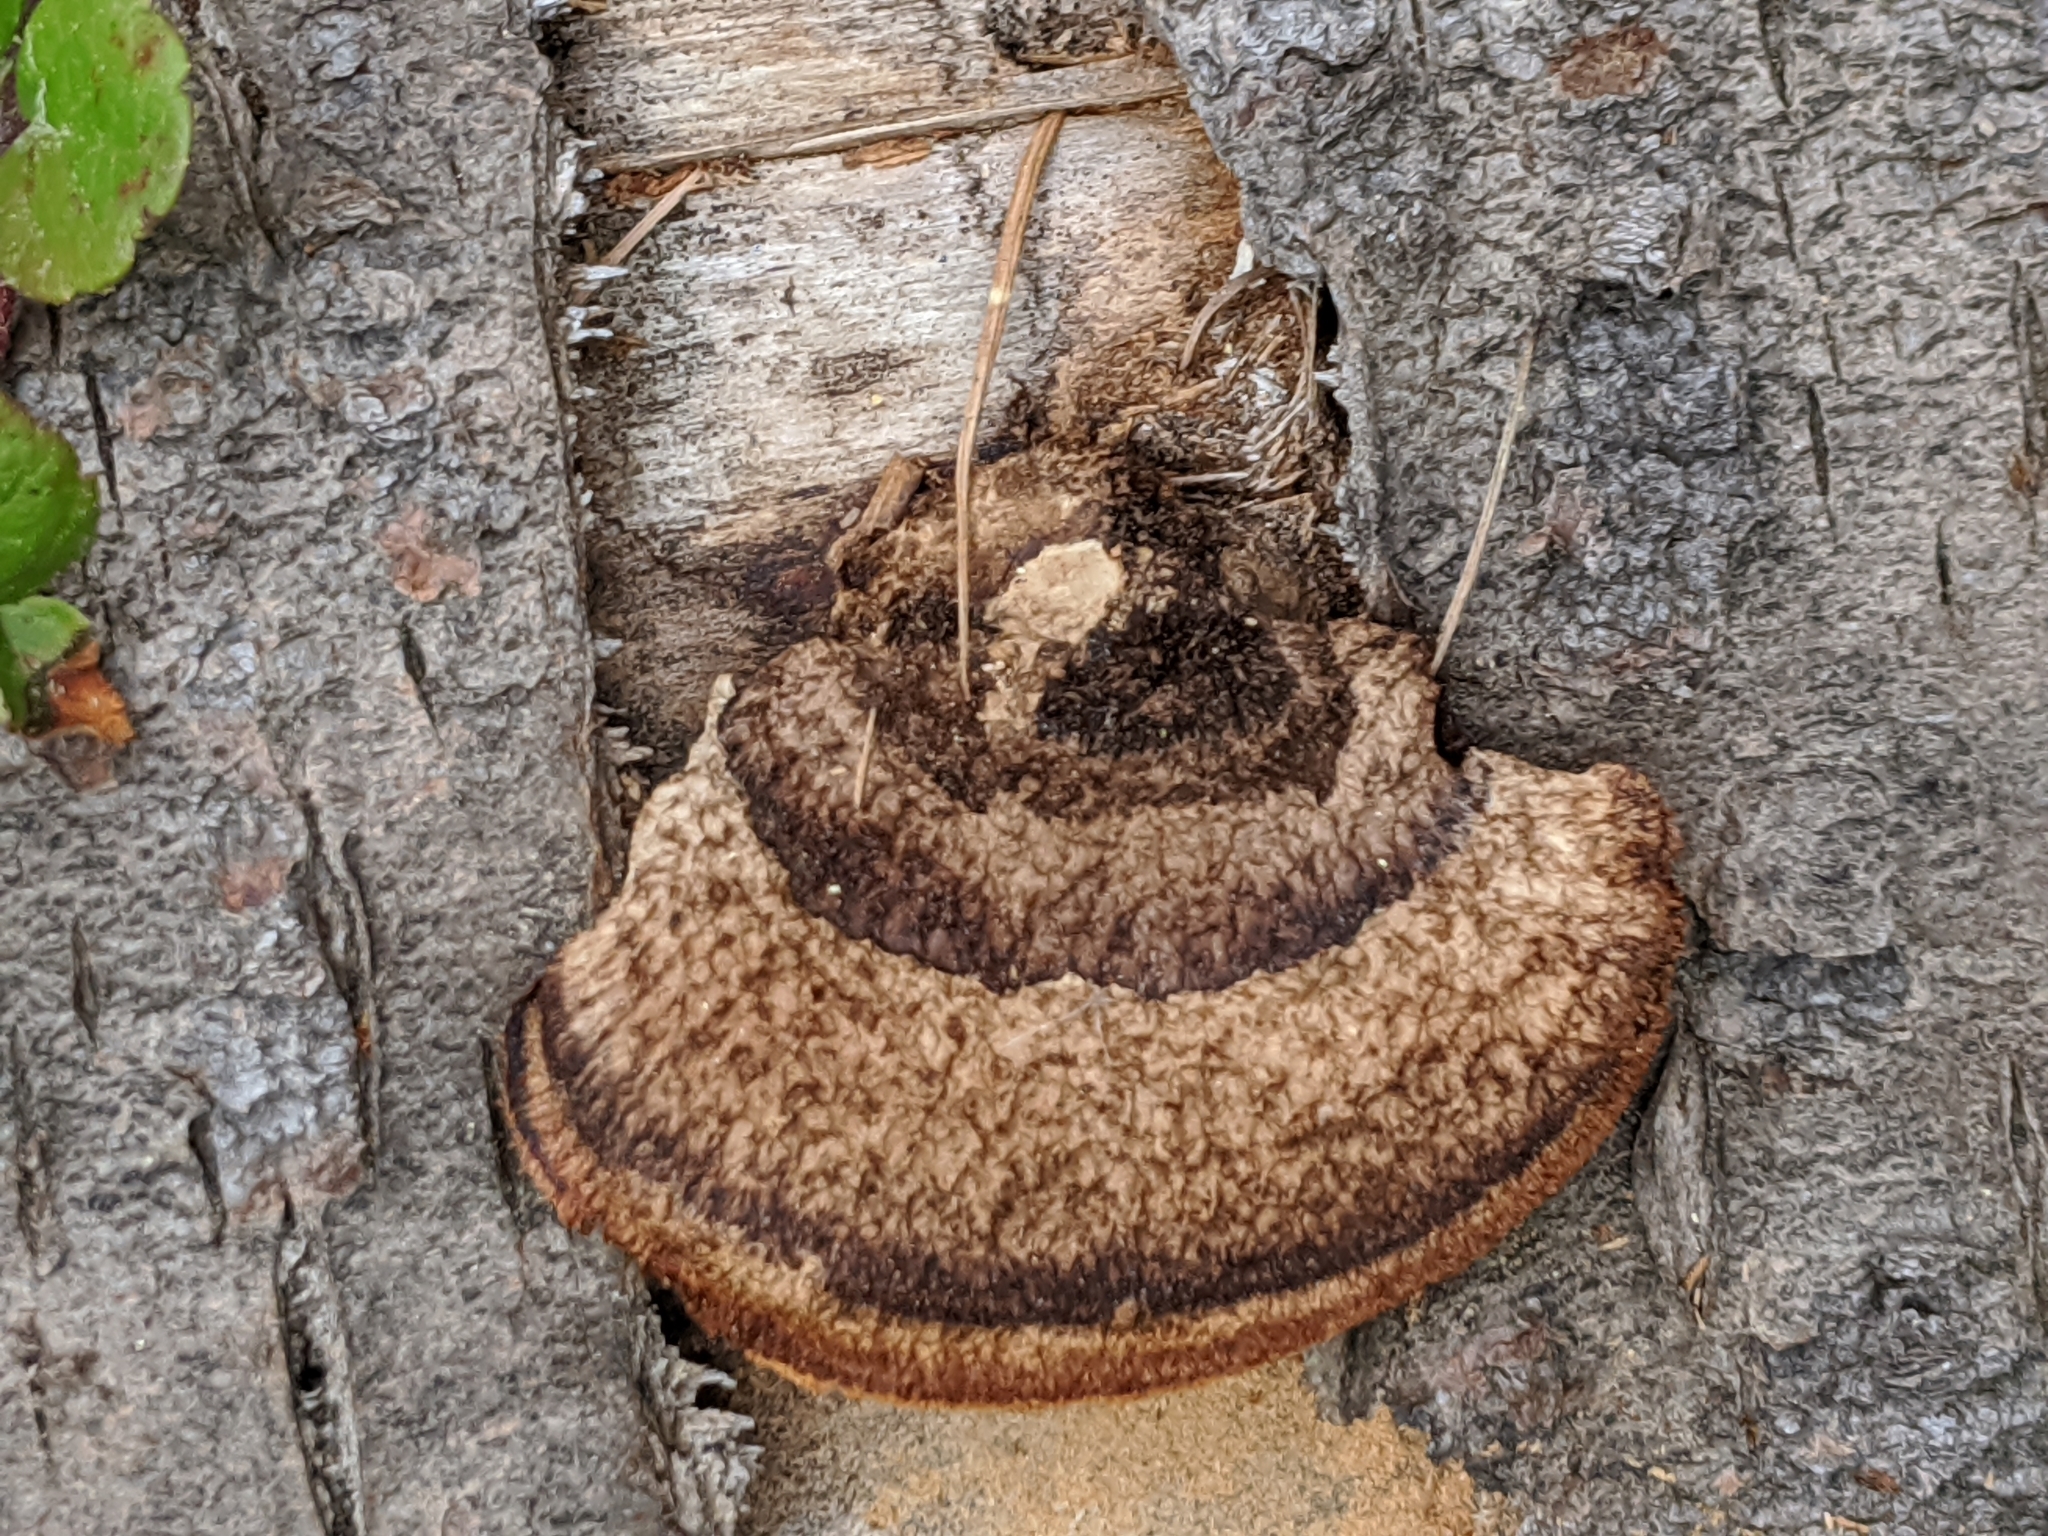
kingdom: Fungi
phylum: Basidiomycota
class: Agaricomycetes
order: Gloeophyllales
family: Gloeophyllaceae
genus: Gloeophyllum
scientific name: Gloeophyllum sepiarium
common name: Conifer mazegill
